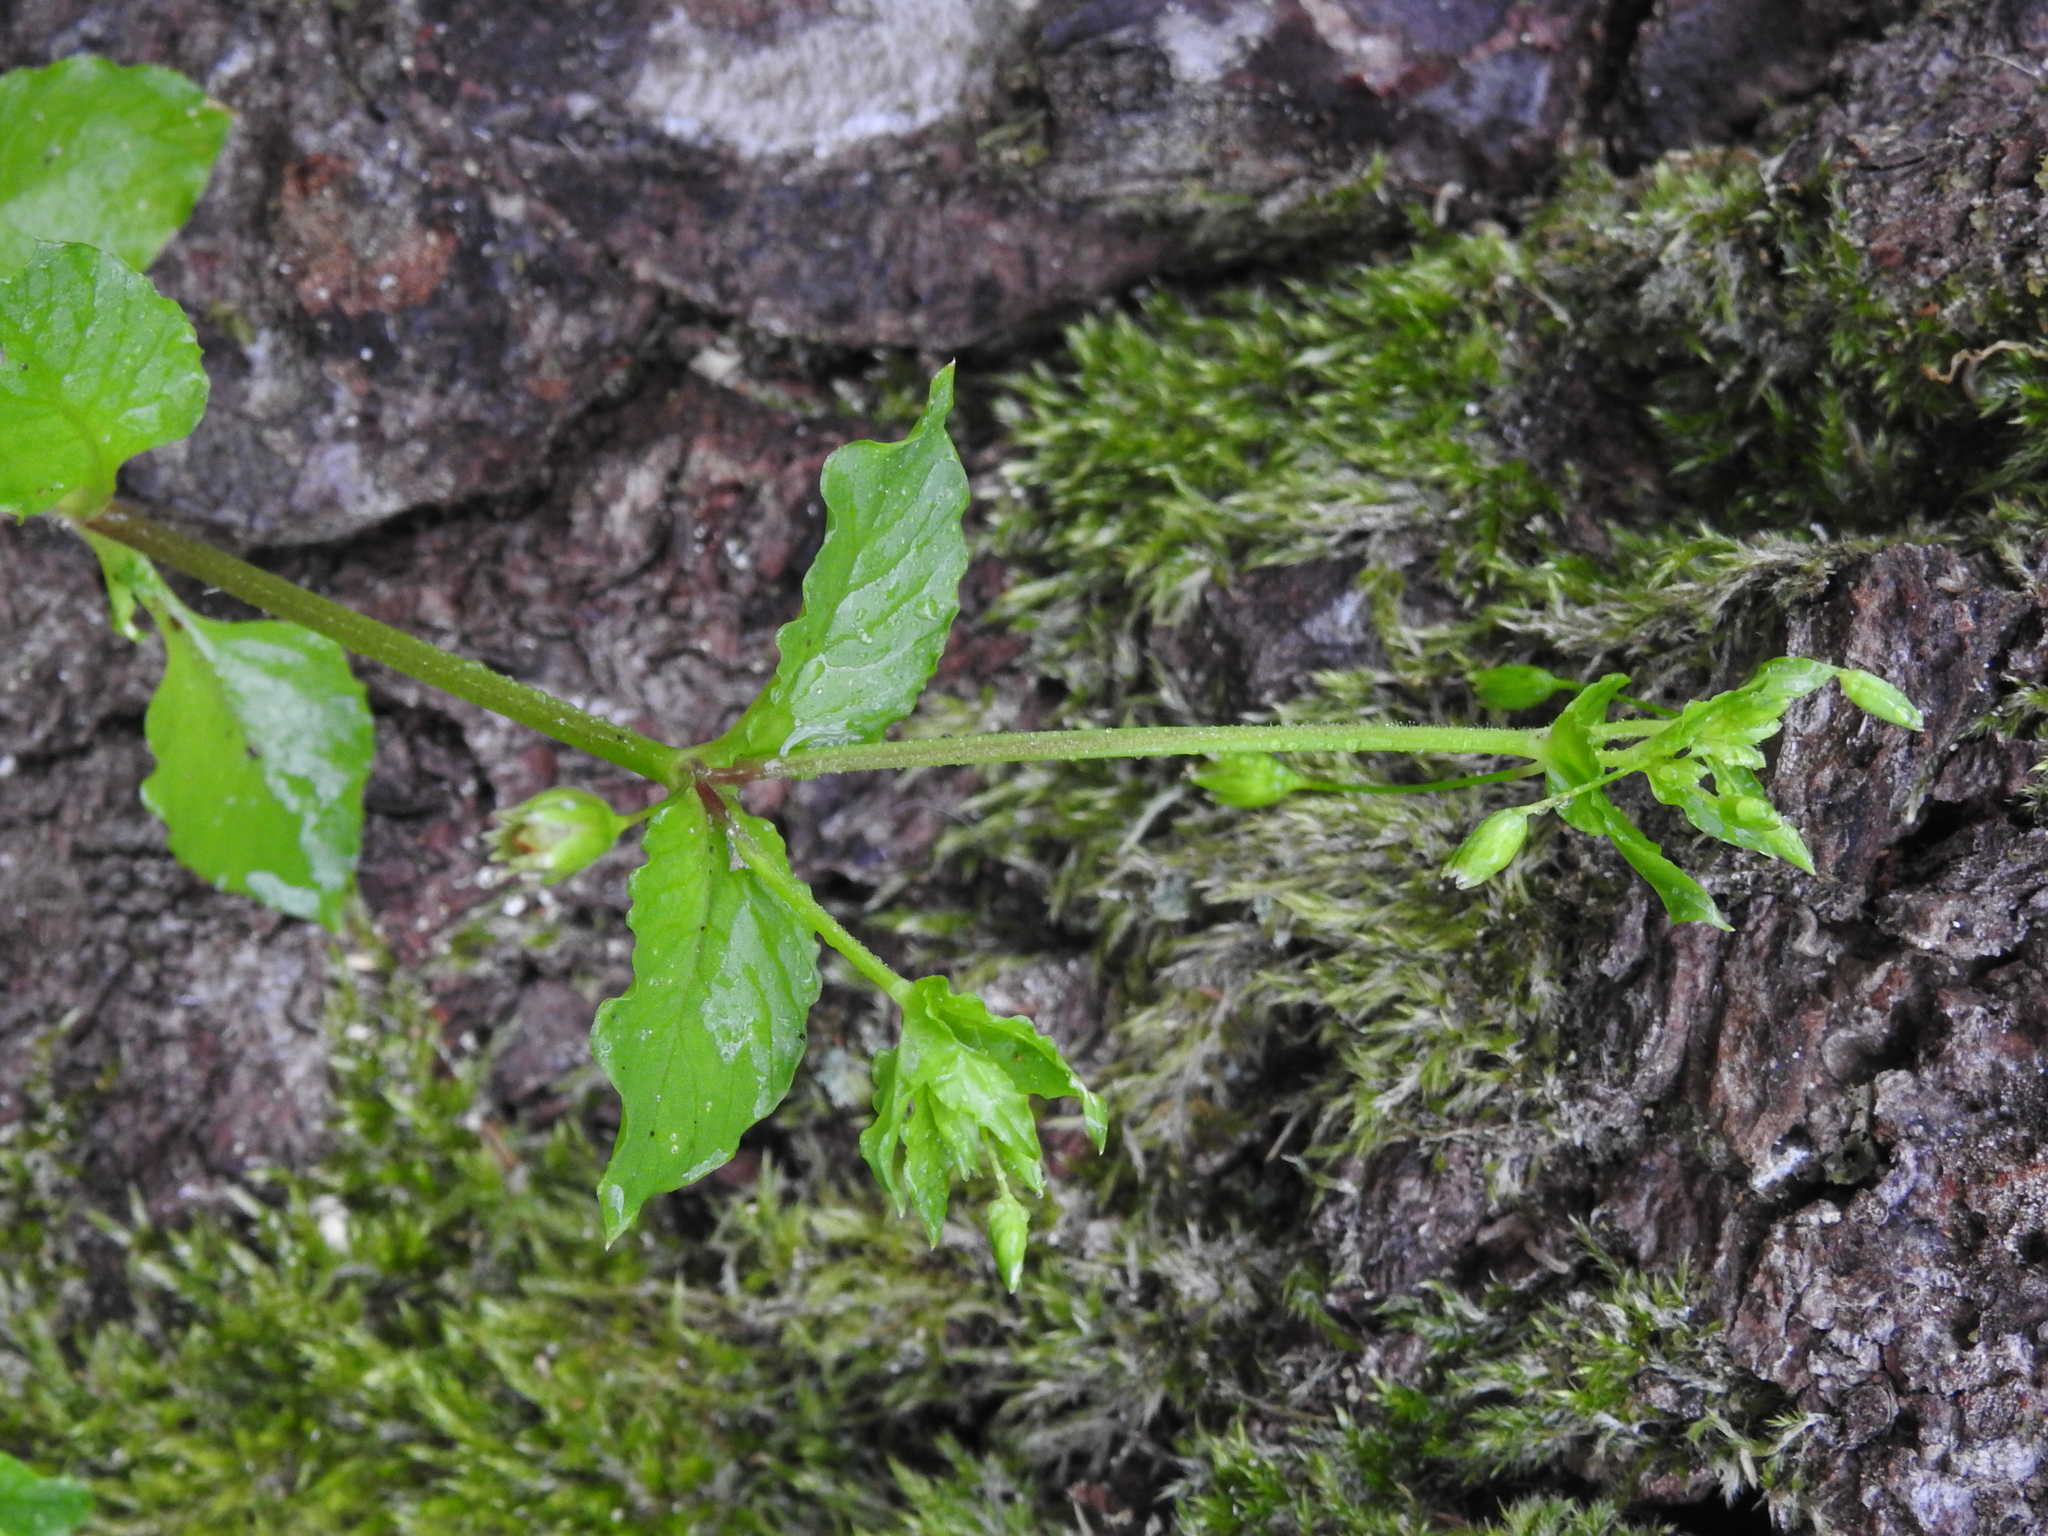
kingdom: Plantae
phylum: Tracheophyta
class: Magnoliopsida
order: Caryophyllales
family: Caryophyllaceae
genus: Stellaria
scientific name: Stellaria neglecta
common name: Greater chickweed
